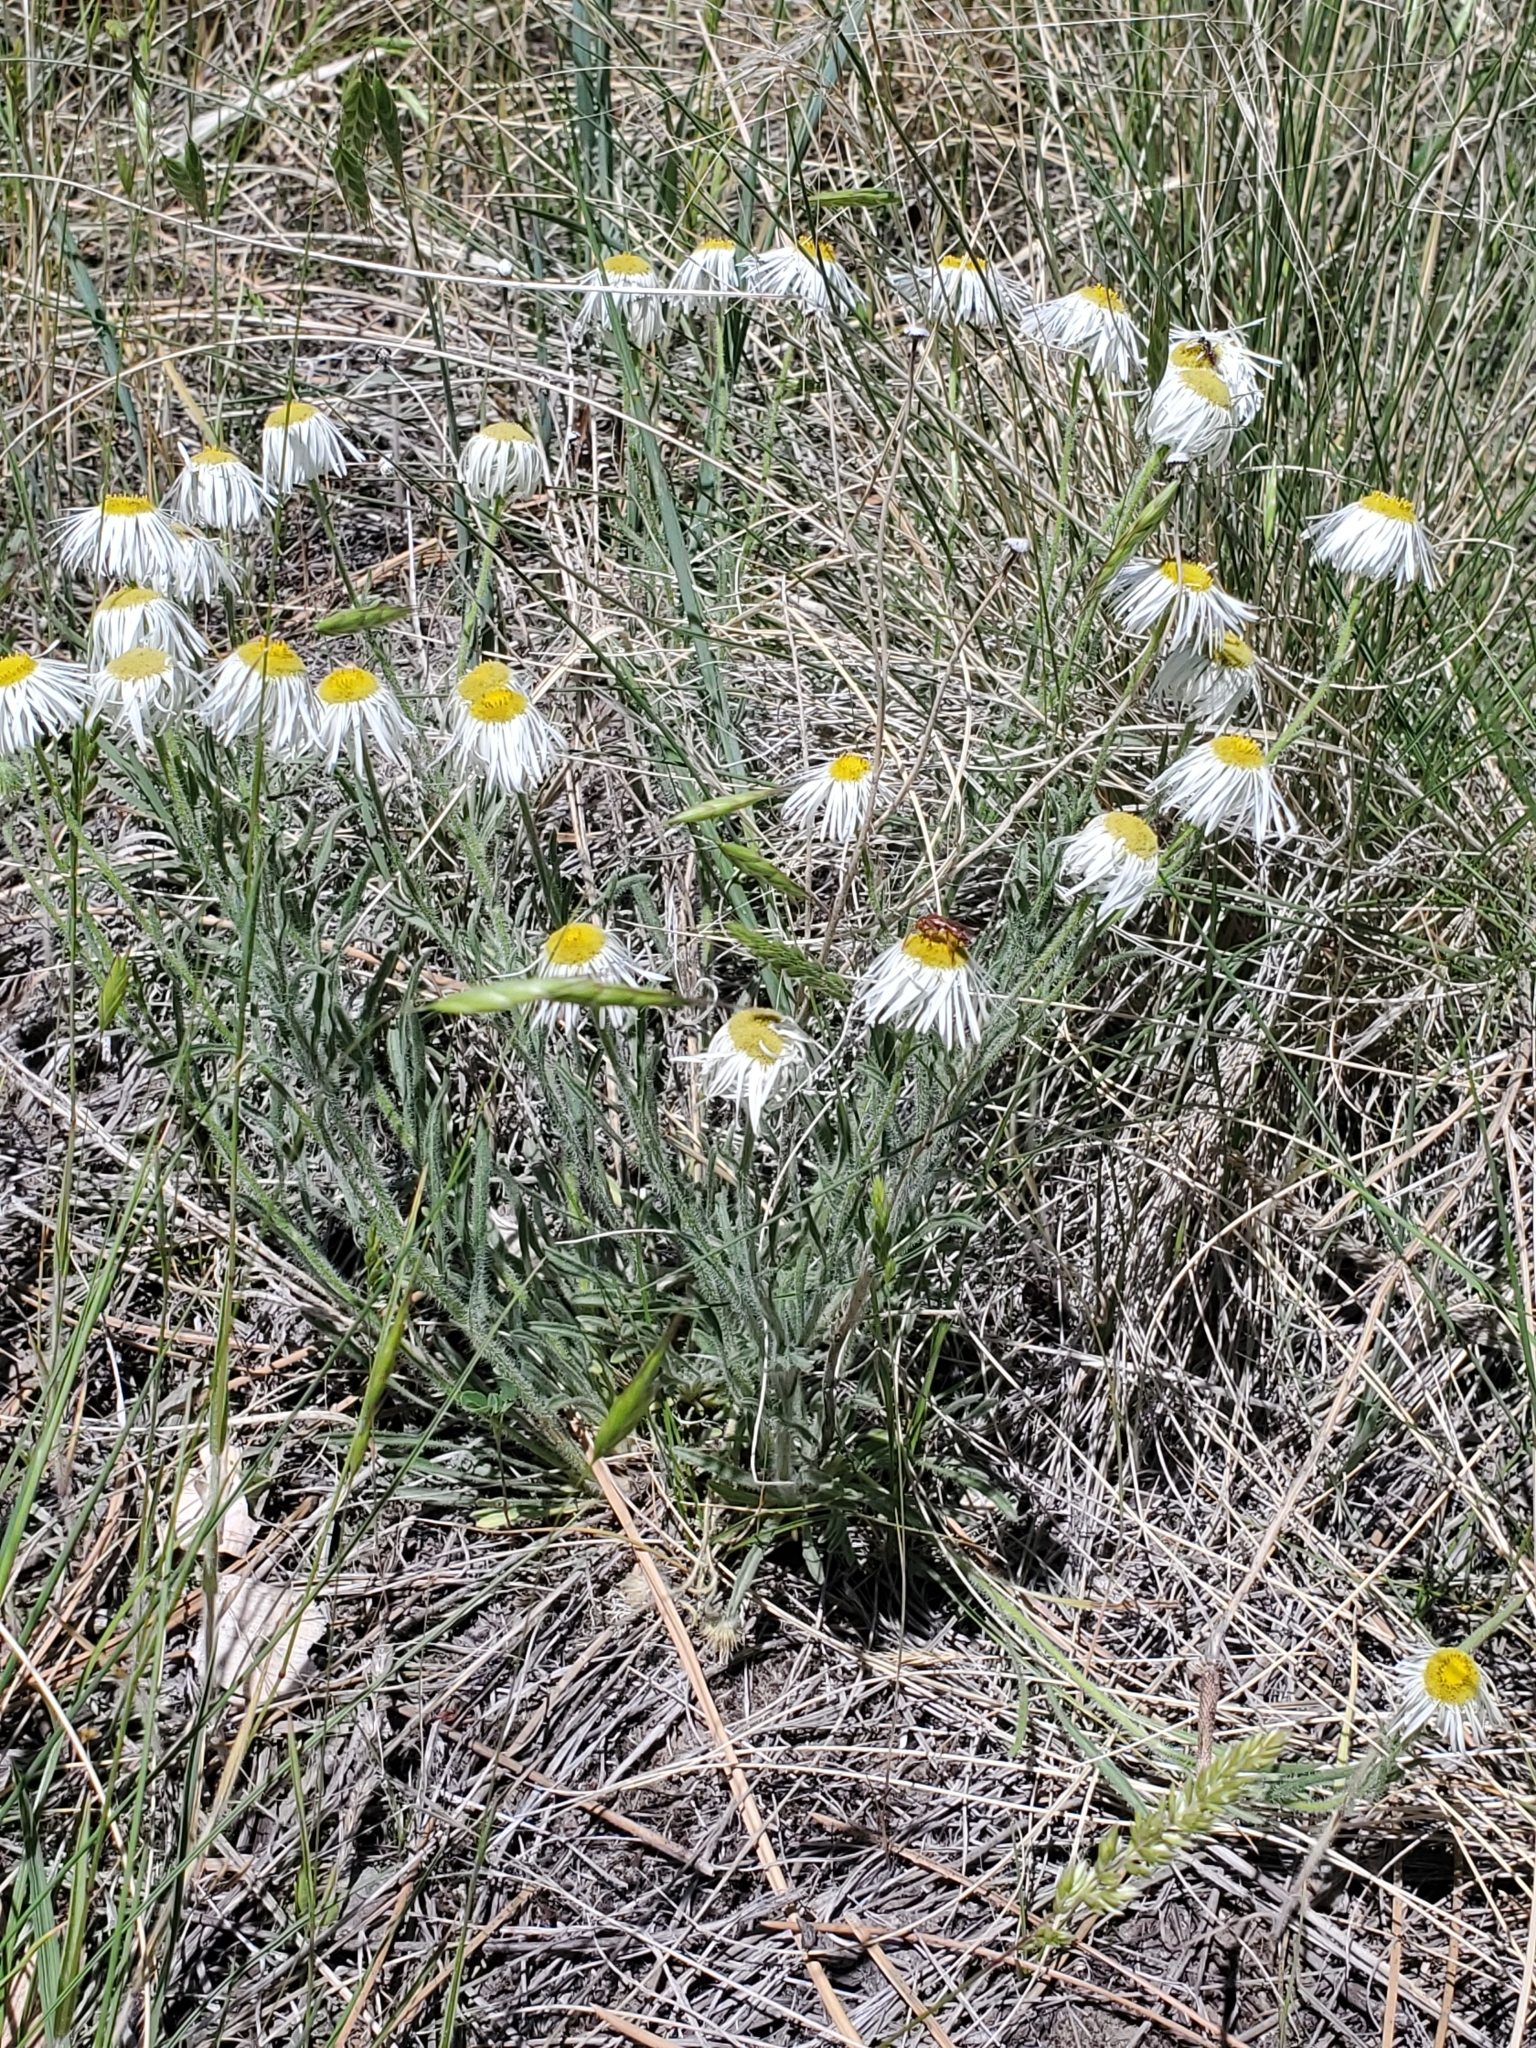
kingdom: Plantae
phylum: Tracheophyta
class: Magnoliopsida
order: Asterales
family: Asteraceae
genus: Erigeron
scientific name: Erigeron pumilus
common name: Shaggy fleabane
